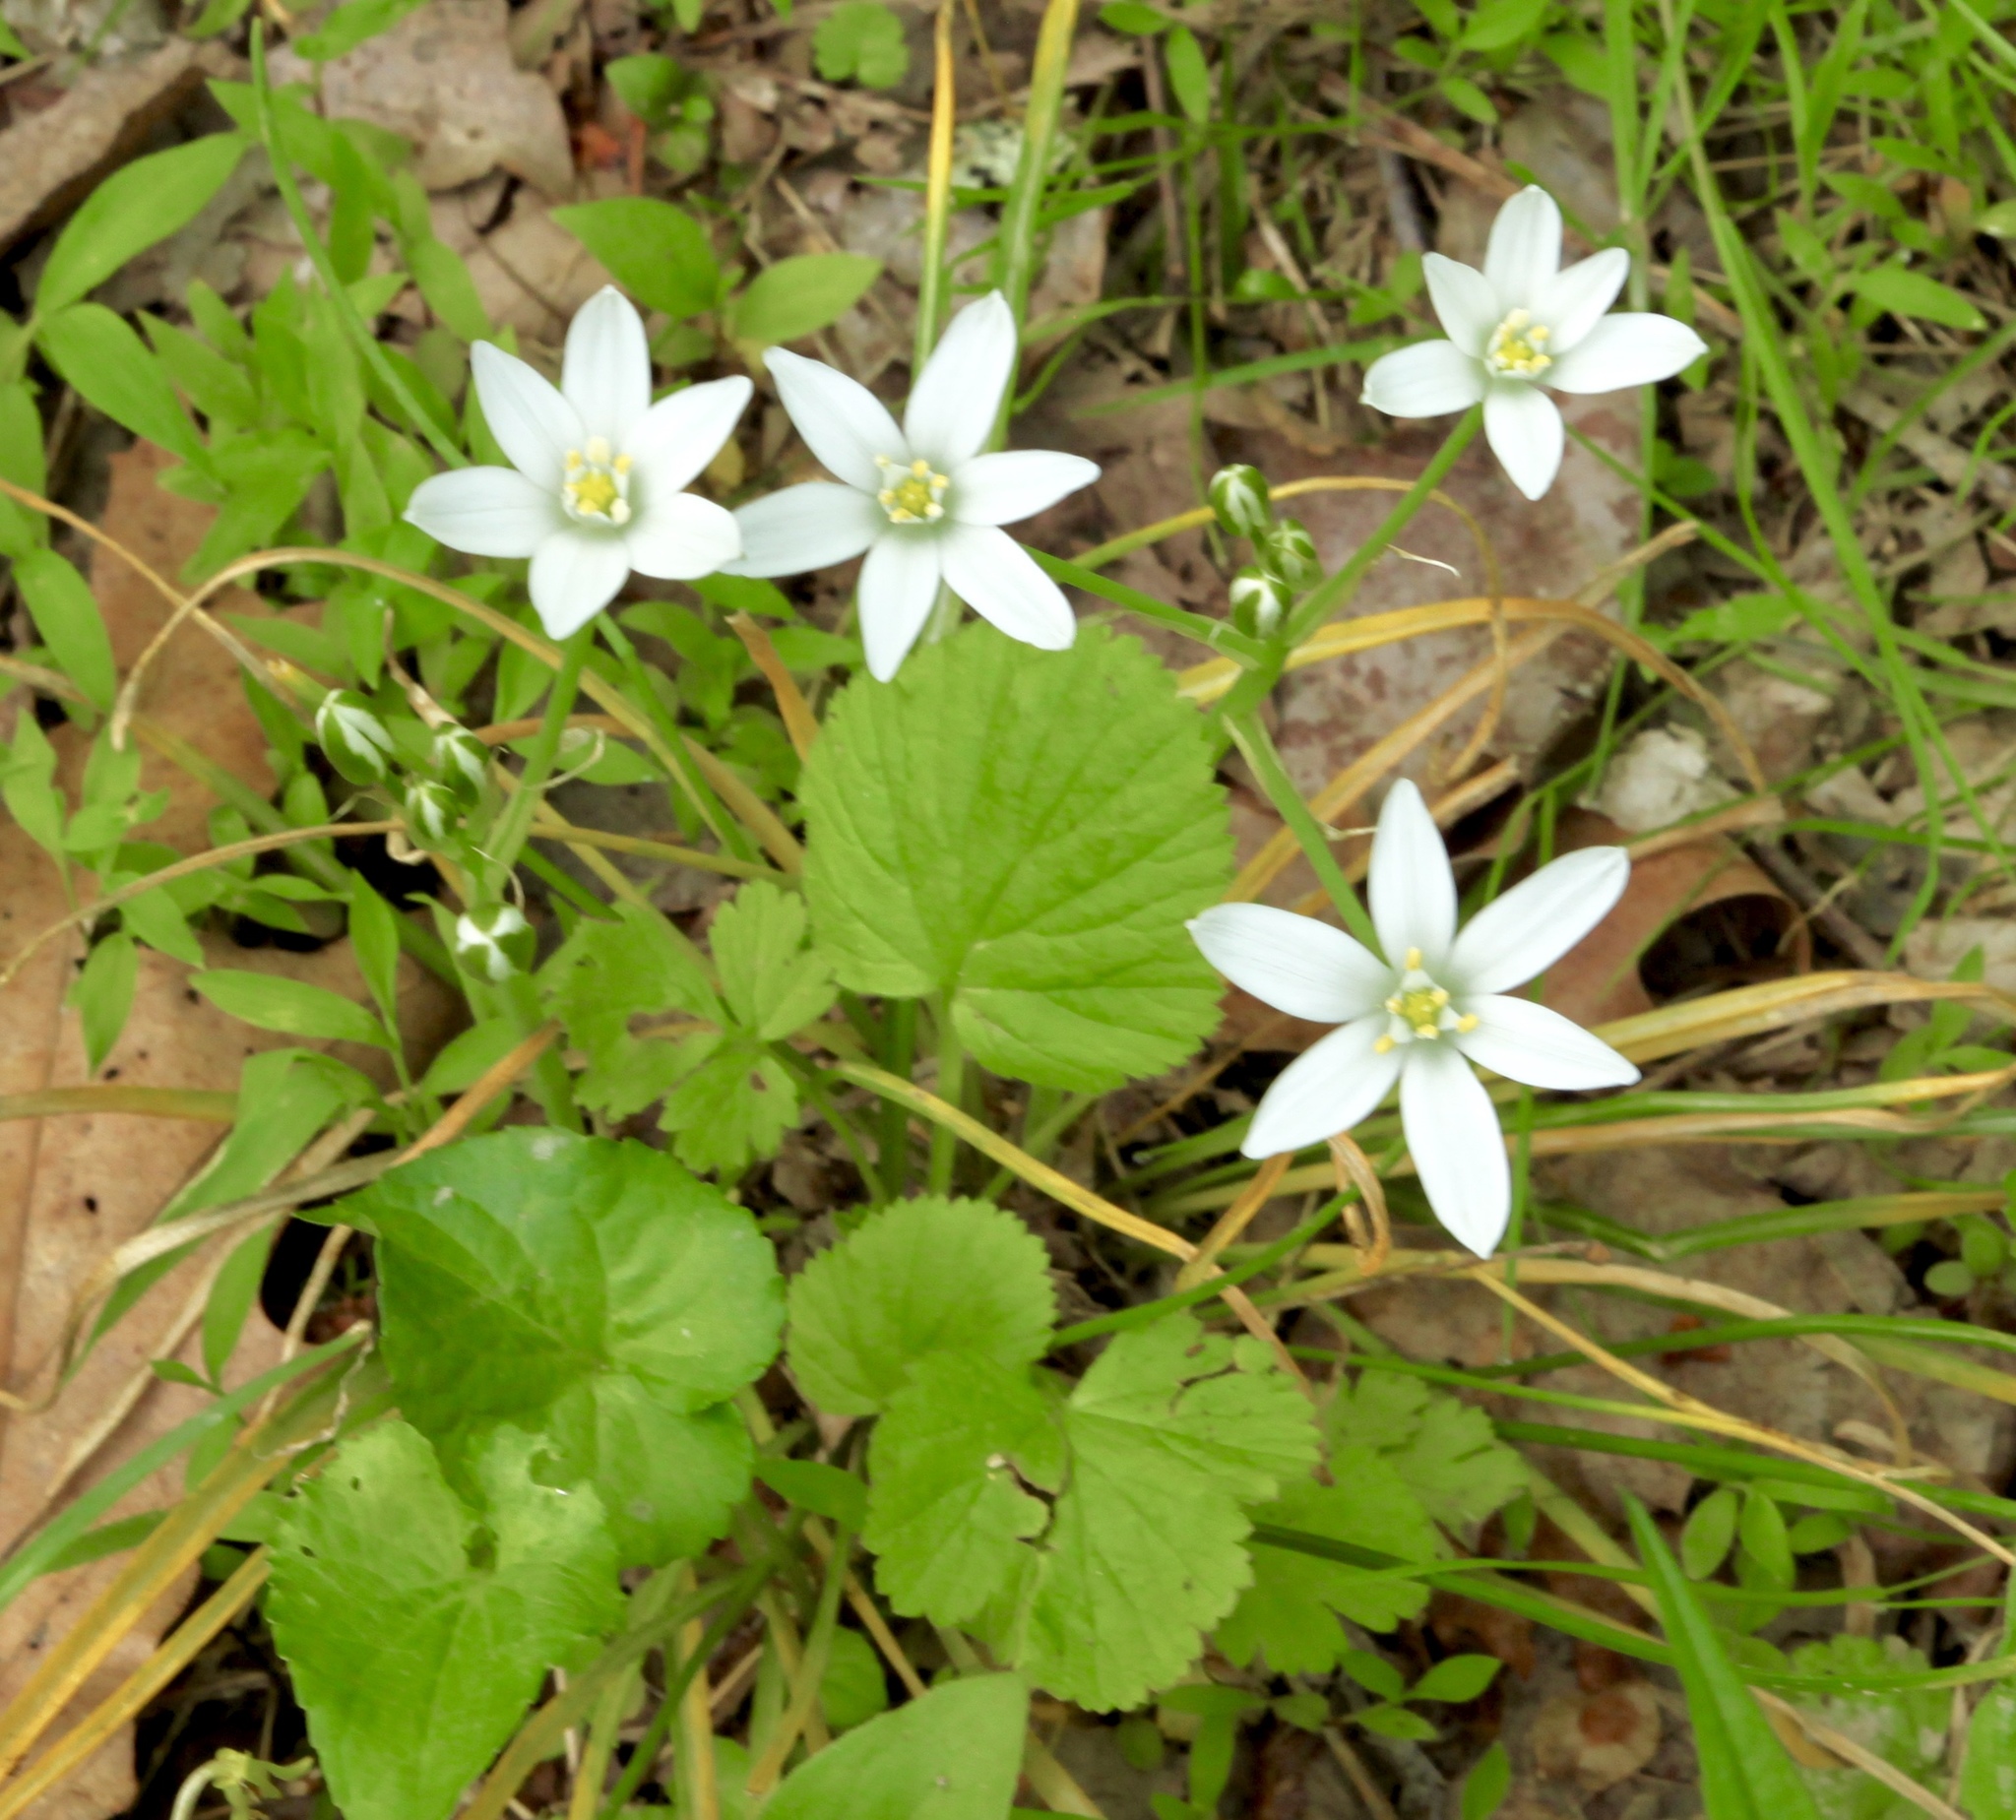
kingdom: Plantae
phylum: Tracheophyta
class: Liliopsida
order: Asparagales
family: Asparagaceae
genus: Ornithogalum
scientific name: Ornithogalum umbellatum
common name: Garden star-of-bethlehem
